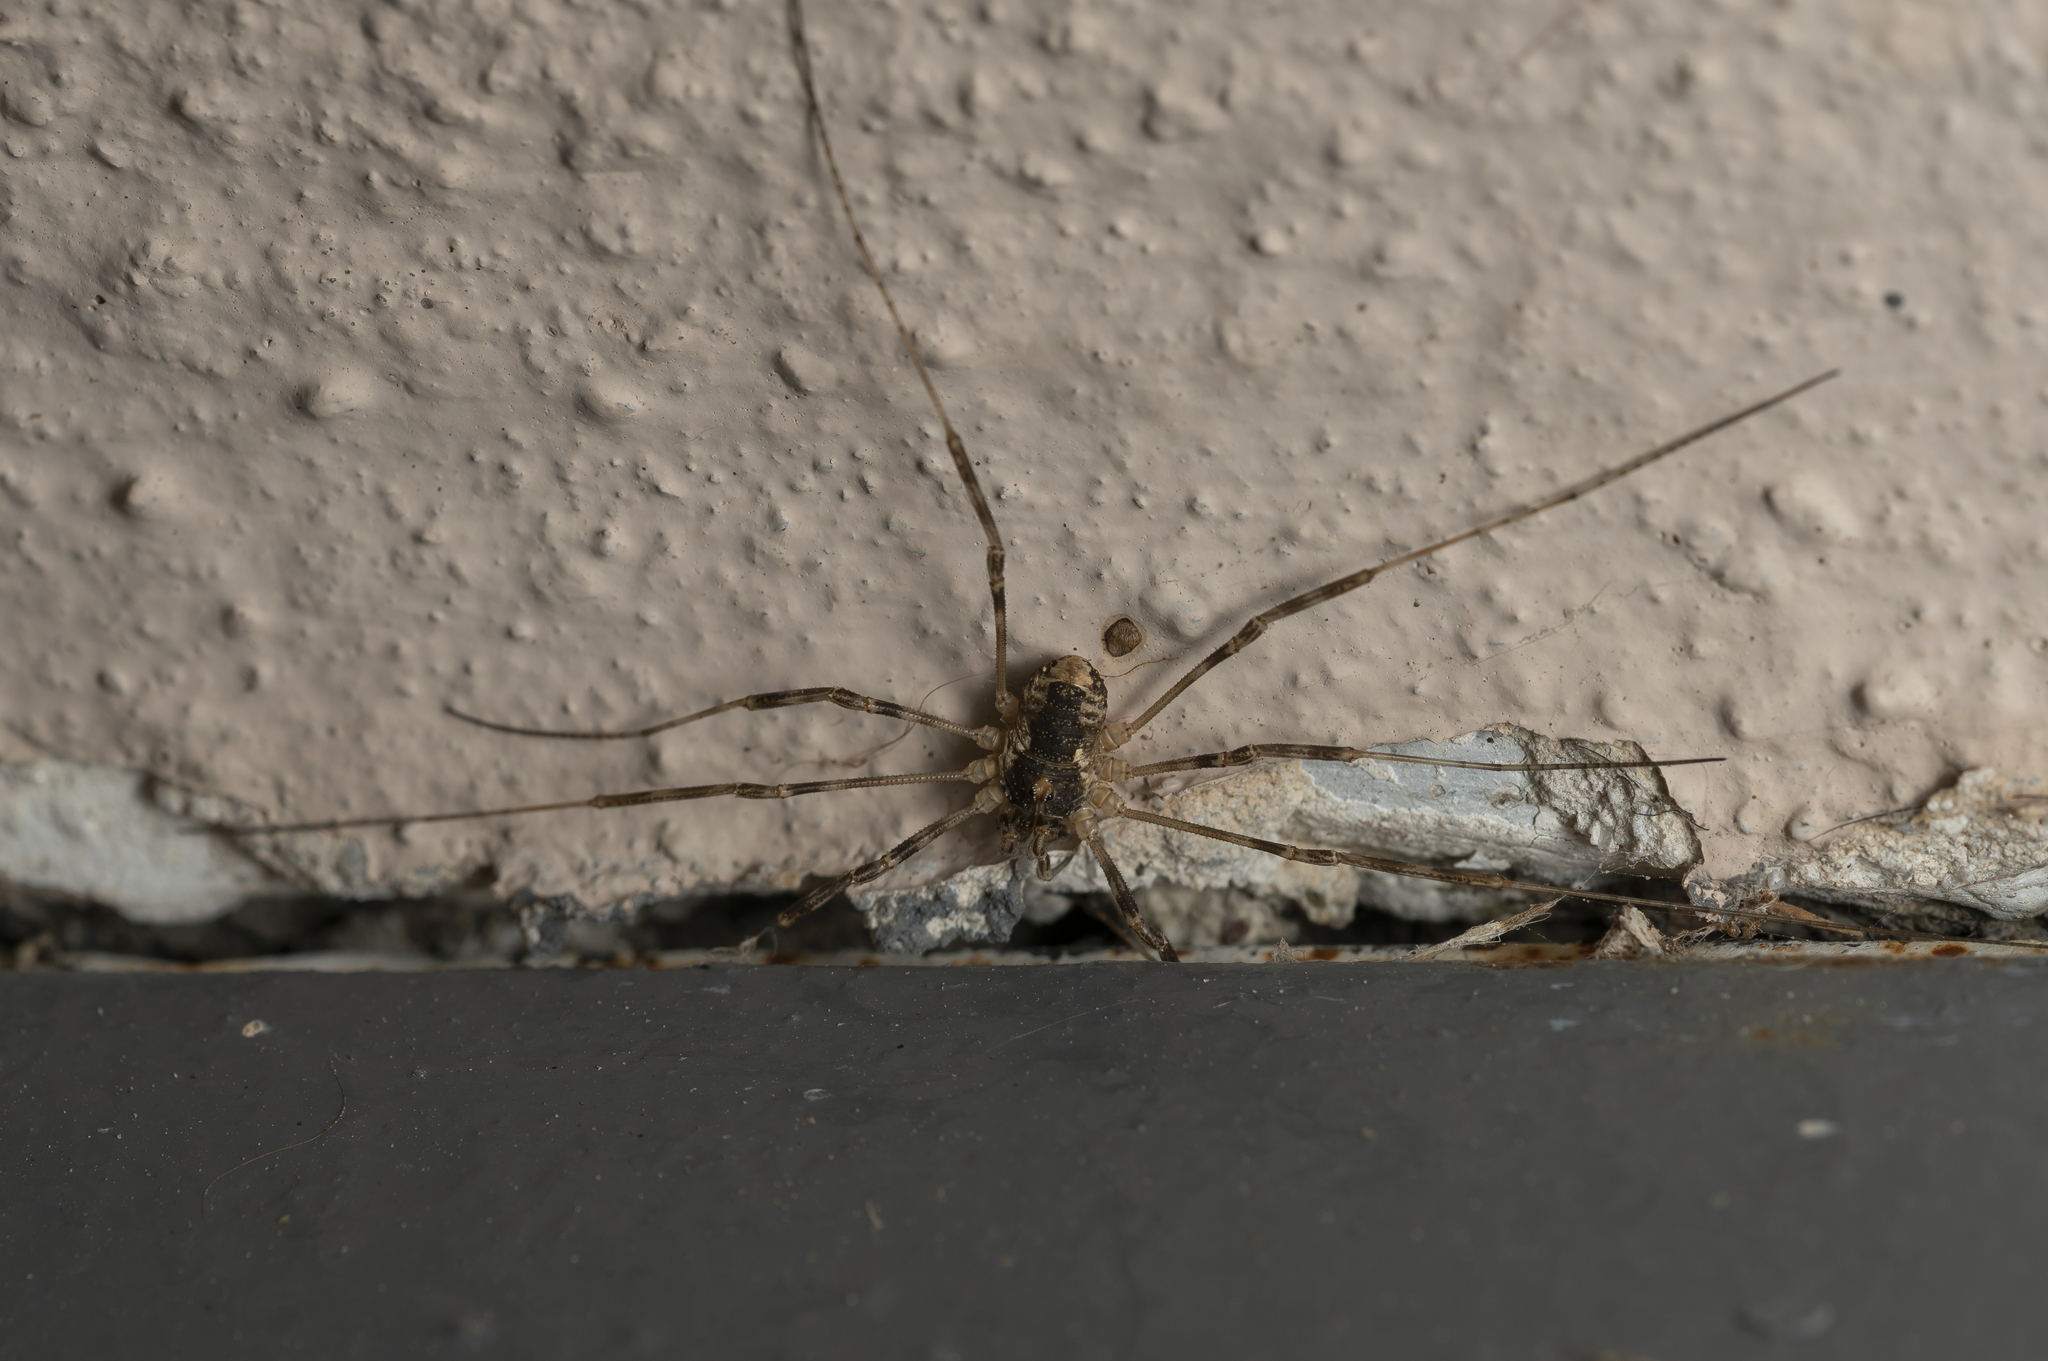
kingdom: Animalia
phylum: Arthropoda
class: Arachnida
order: Opiliones
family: Phalangiidae
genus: Rafalskia
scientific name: Rafalskia cretica
